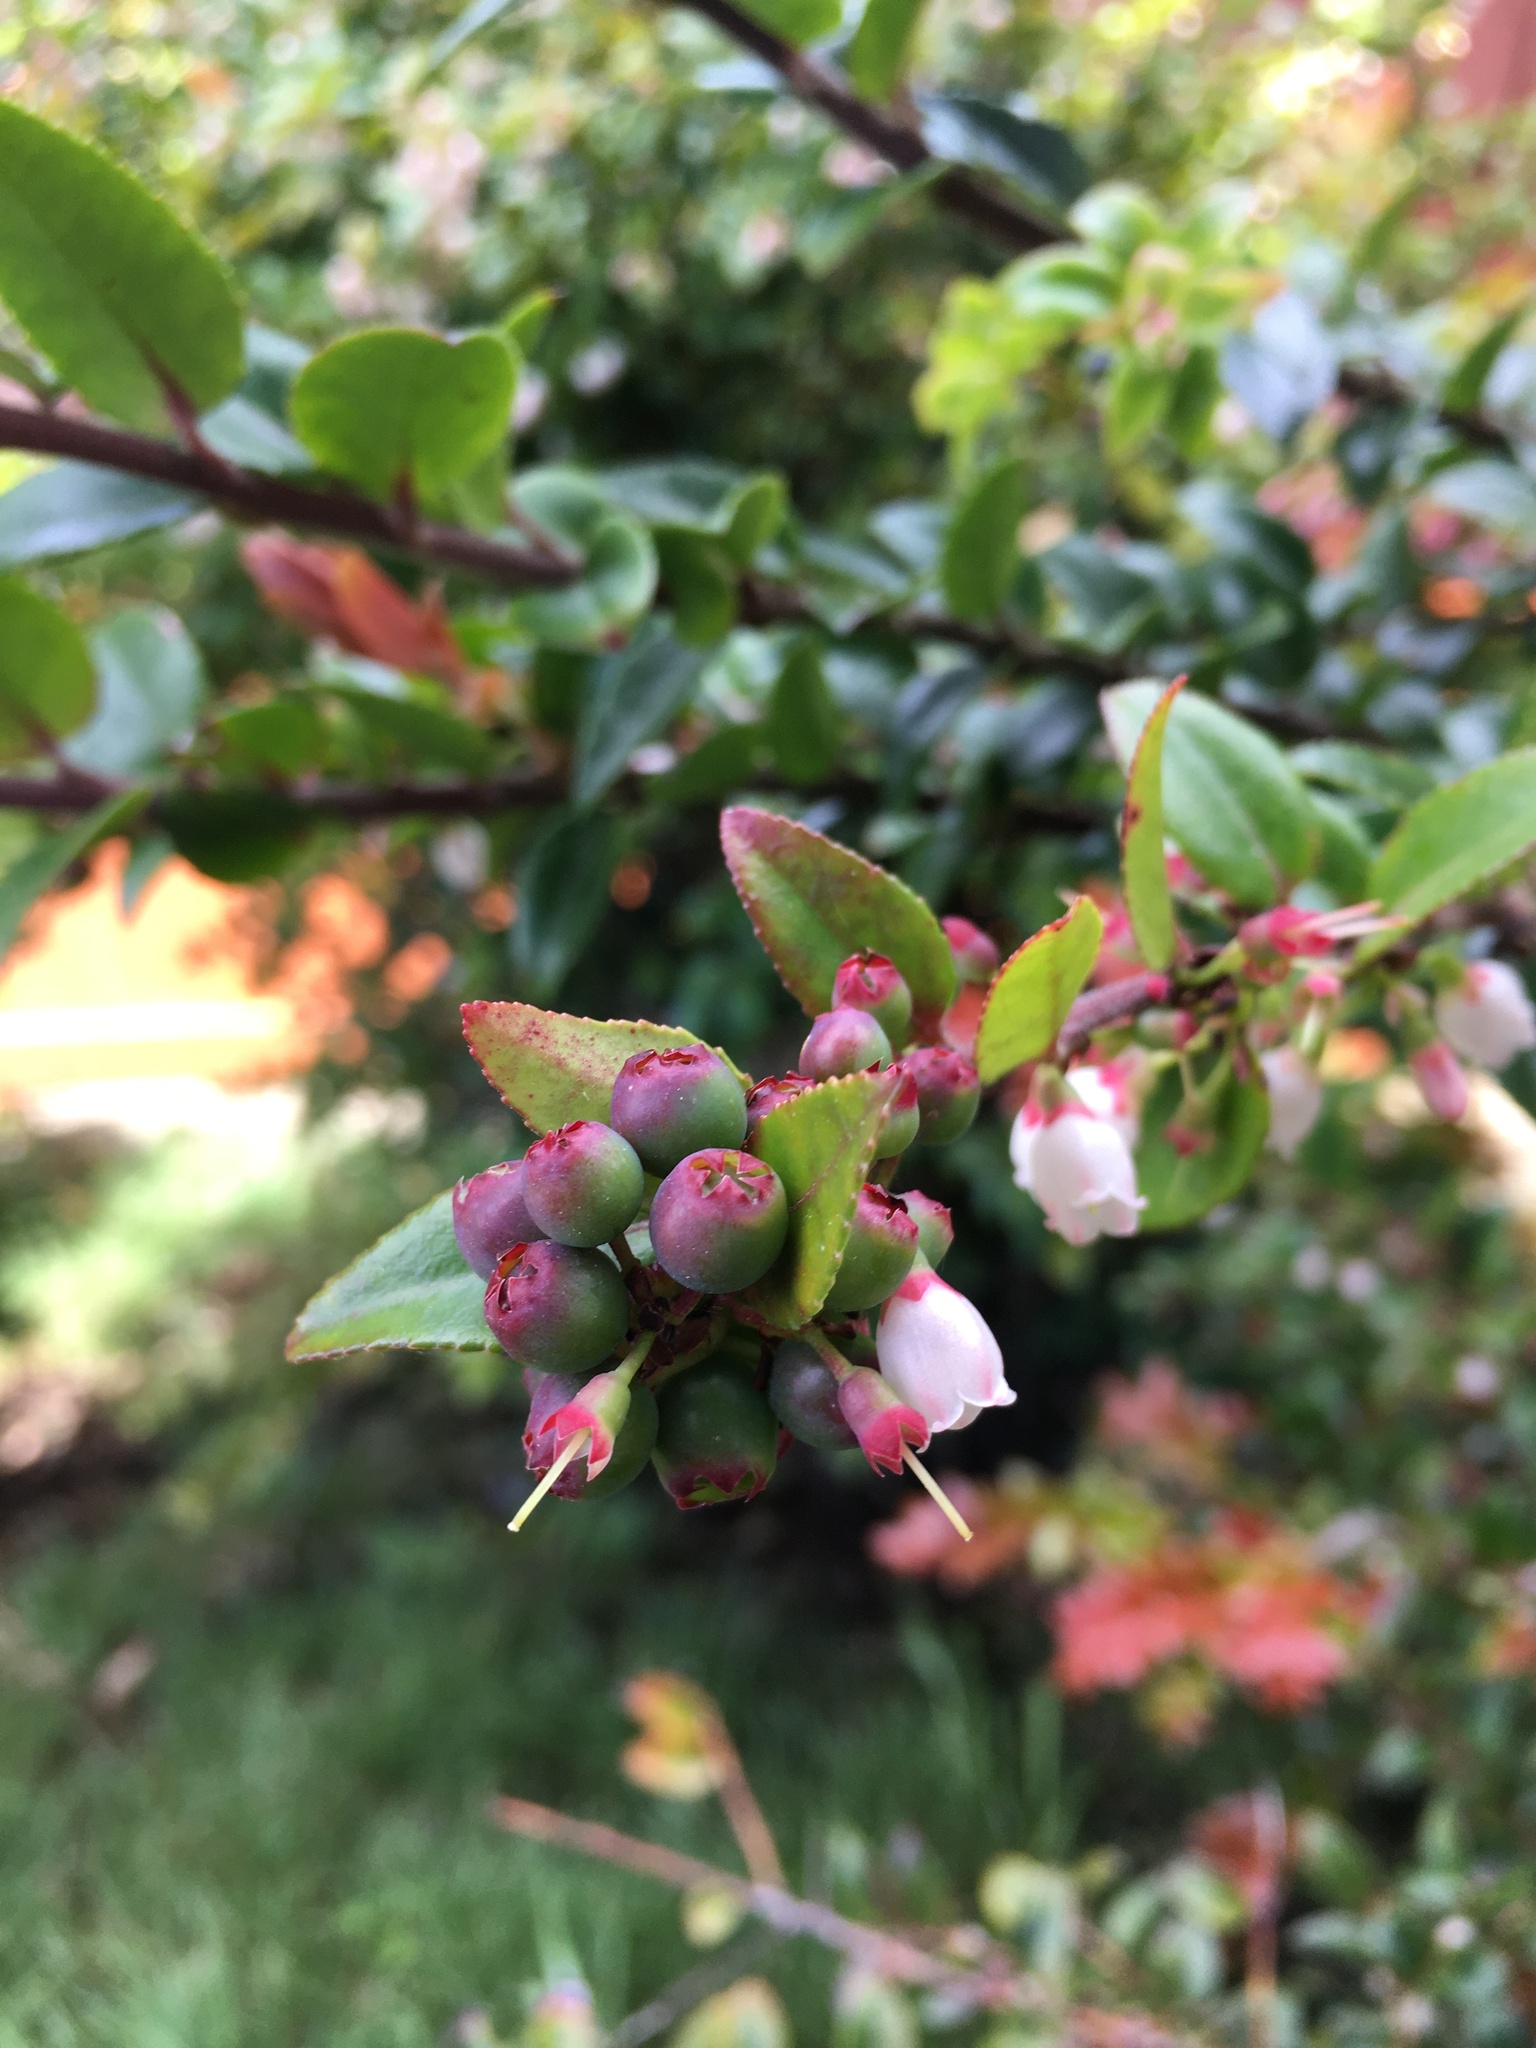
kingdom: Plantae
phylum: Tracheophyta
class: Magnoliopsida
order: Ericales
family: Ericaceae
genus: Vaccinium
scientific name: Vaccinium ovatum
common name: California-huckleberry
